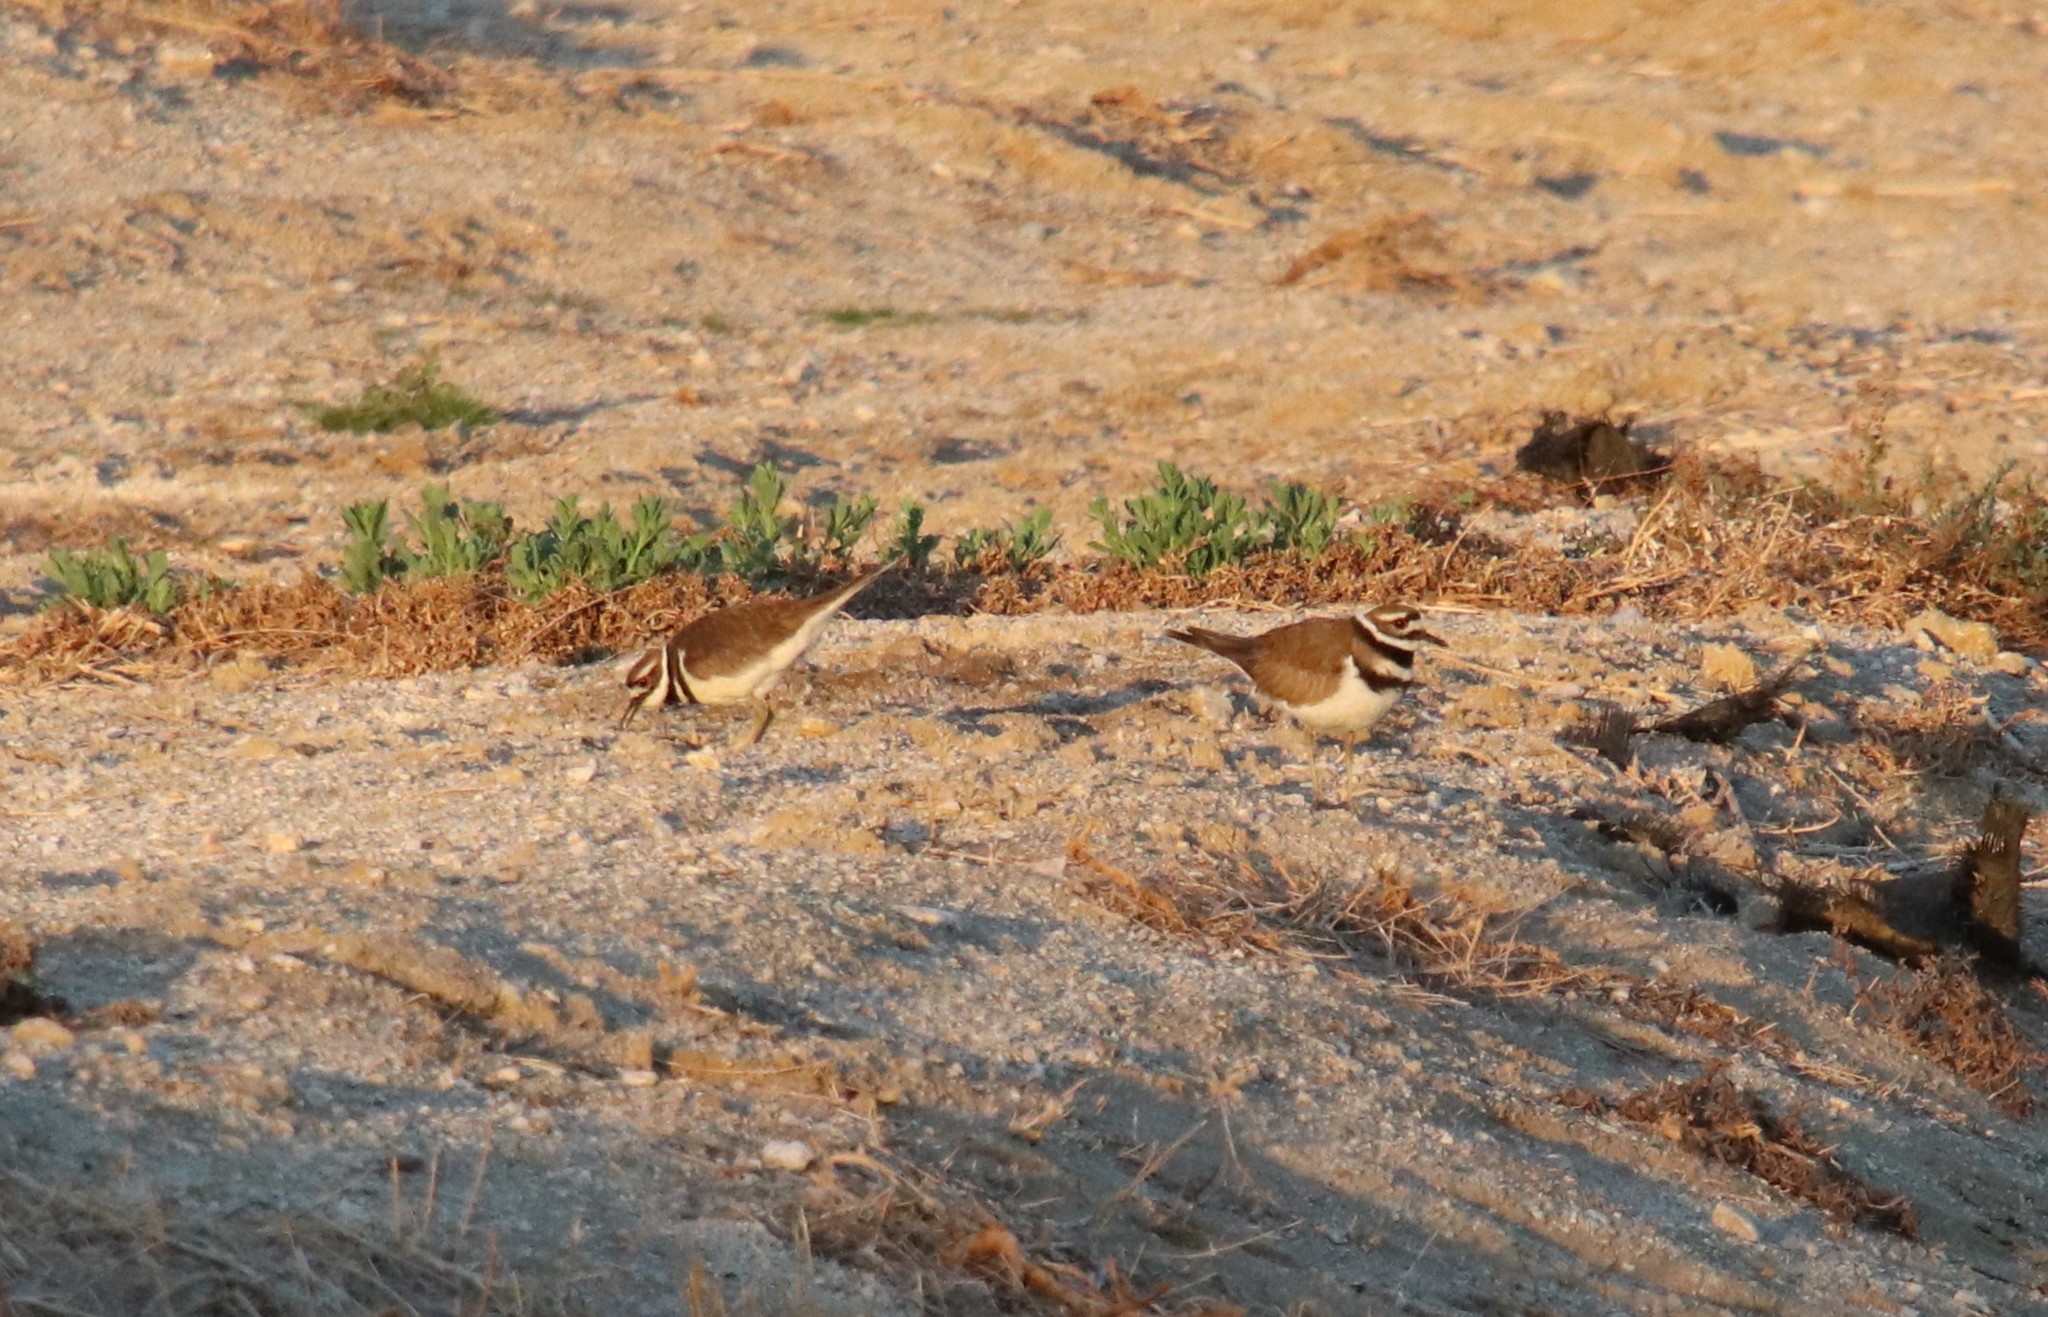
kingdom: Animalia
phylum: Chordata
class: Aves
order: Charadriiformes
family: Charadriidae
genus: Charadrius
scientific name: Charadrius vociferus
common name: Killdeer
